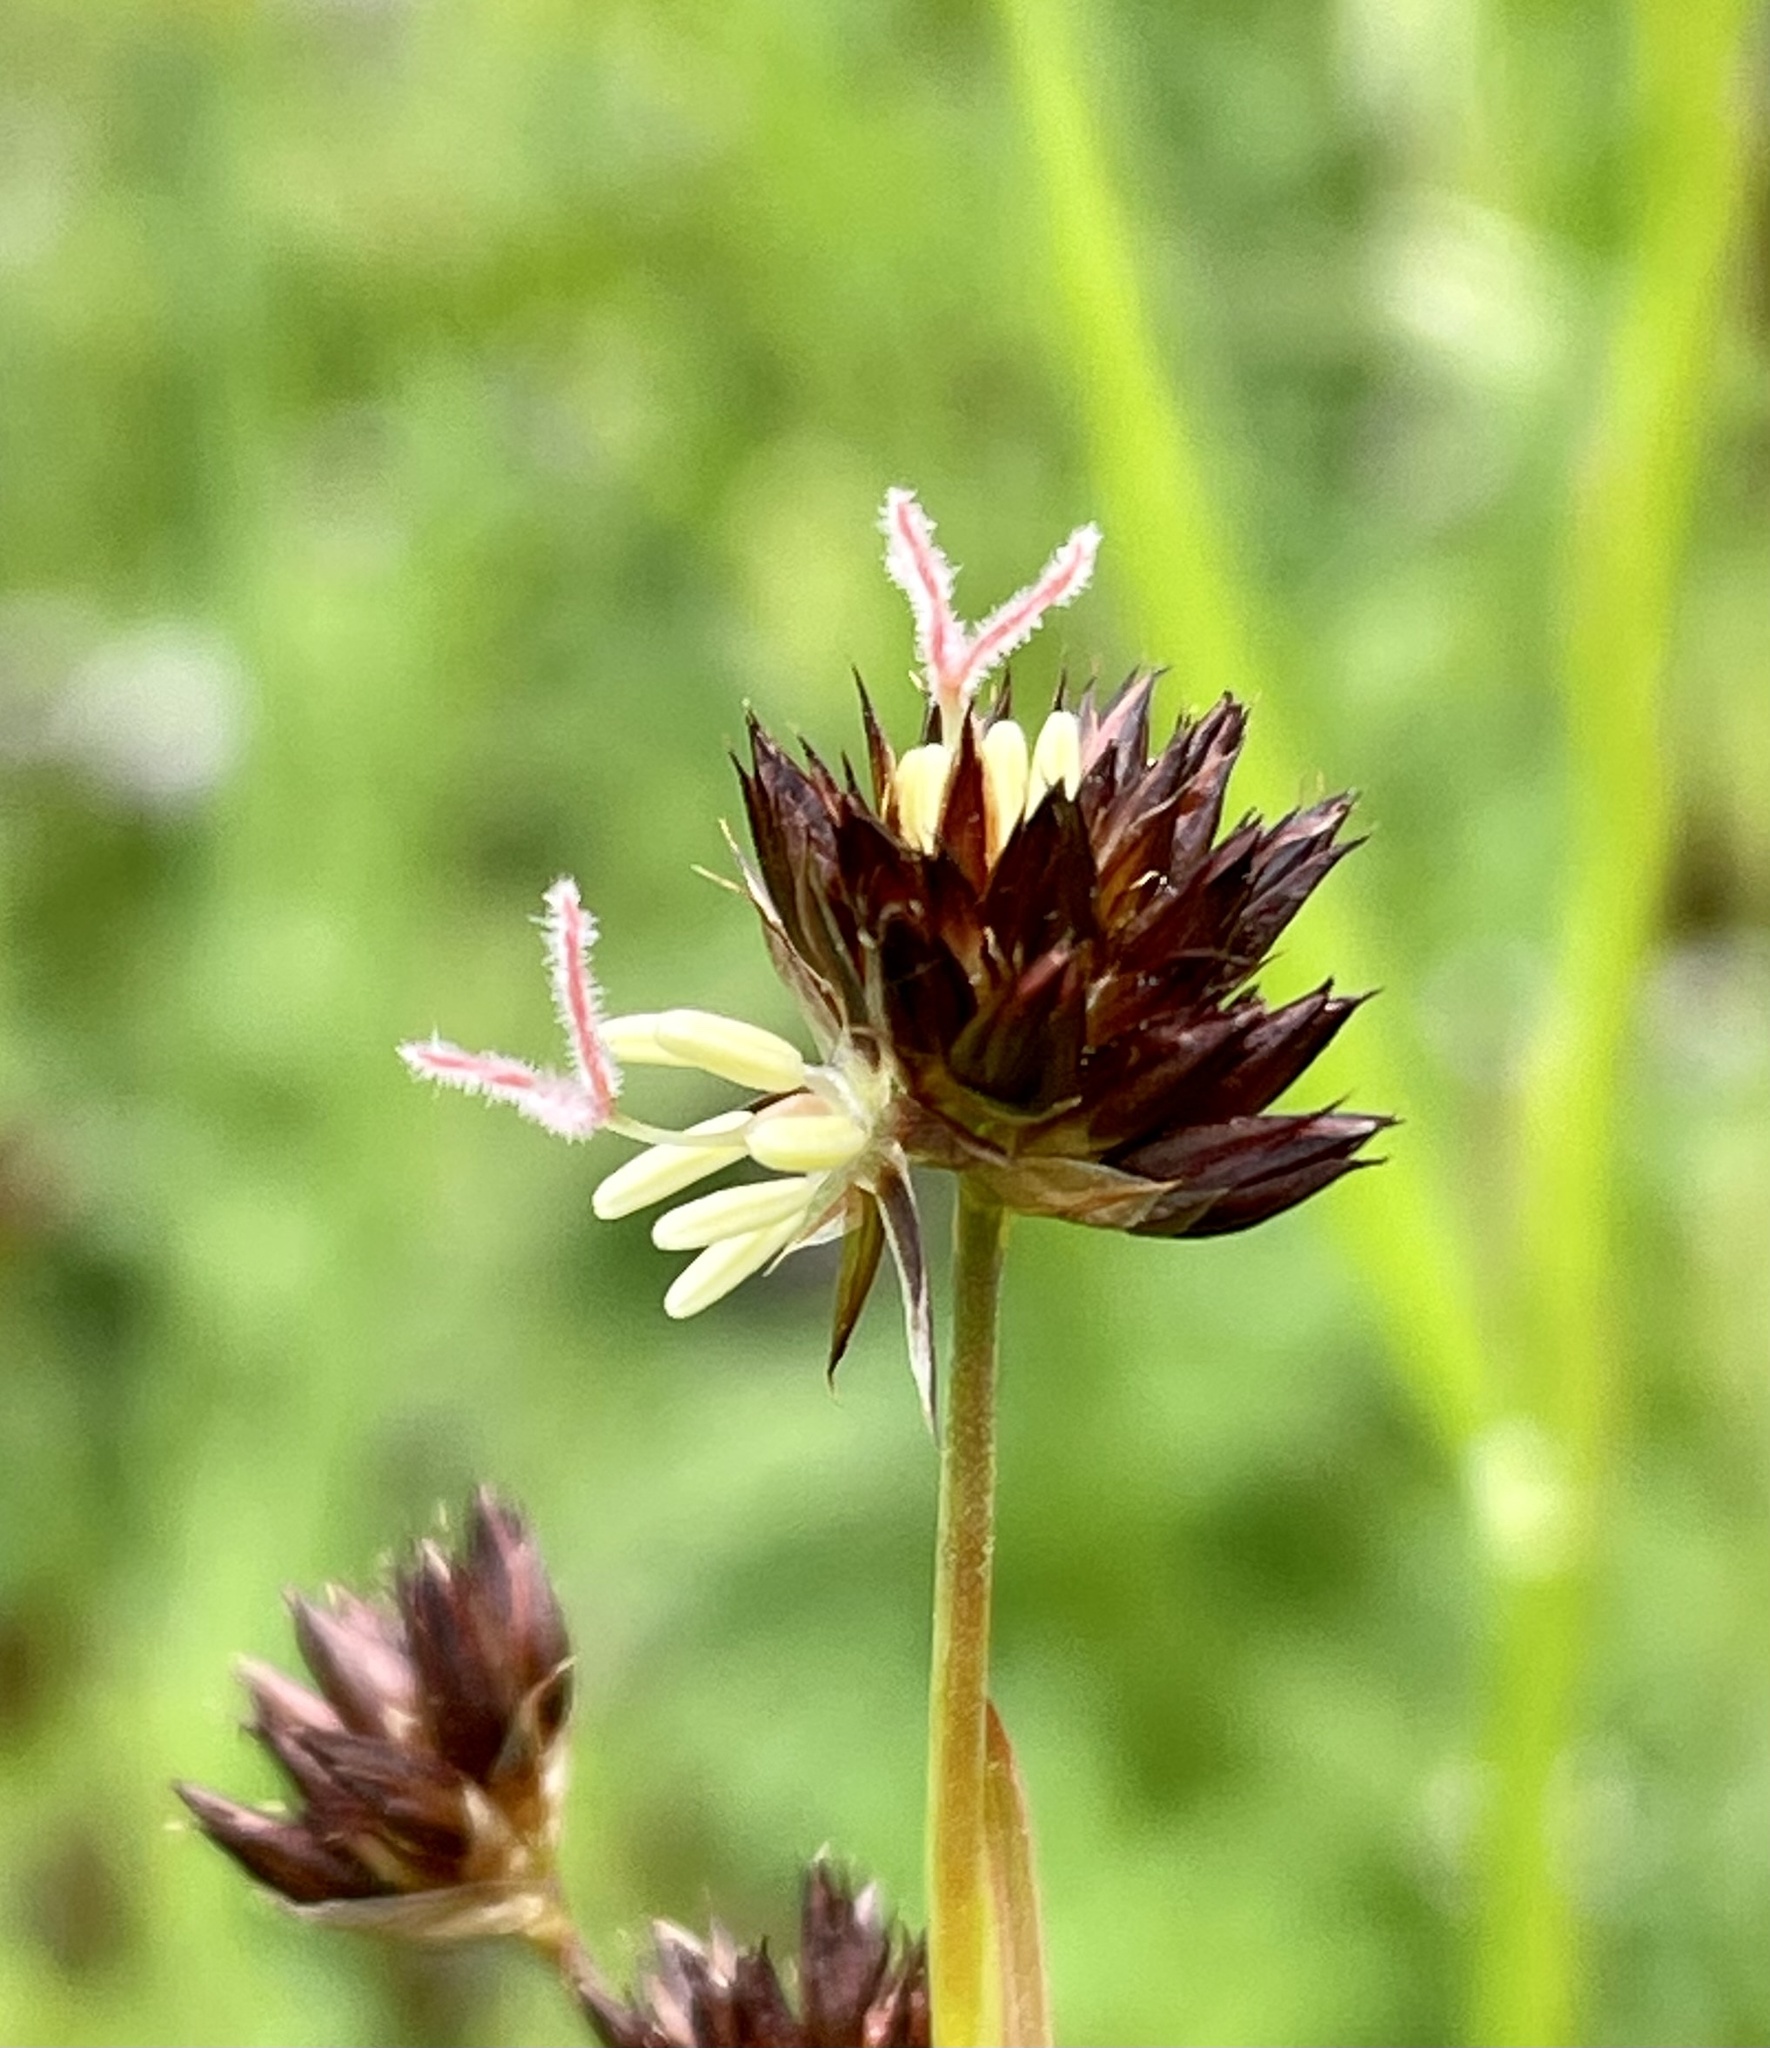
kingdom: Plantae
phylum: Tracheophyta
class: Liliopsida
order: Poales
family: Juncaceae
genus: Juncus
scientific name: Juncus phaeocephalus
